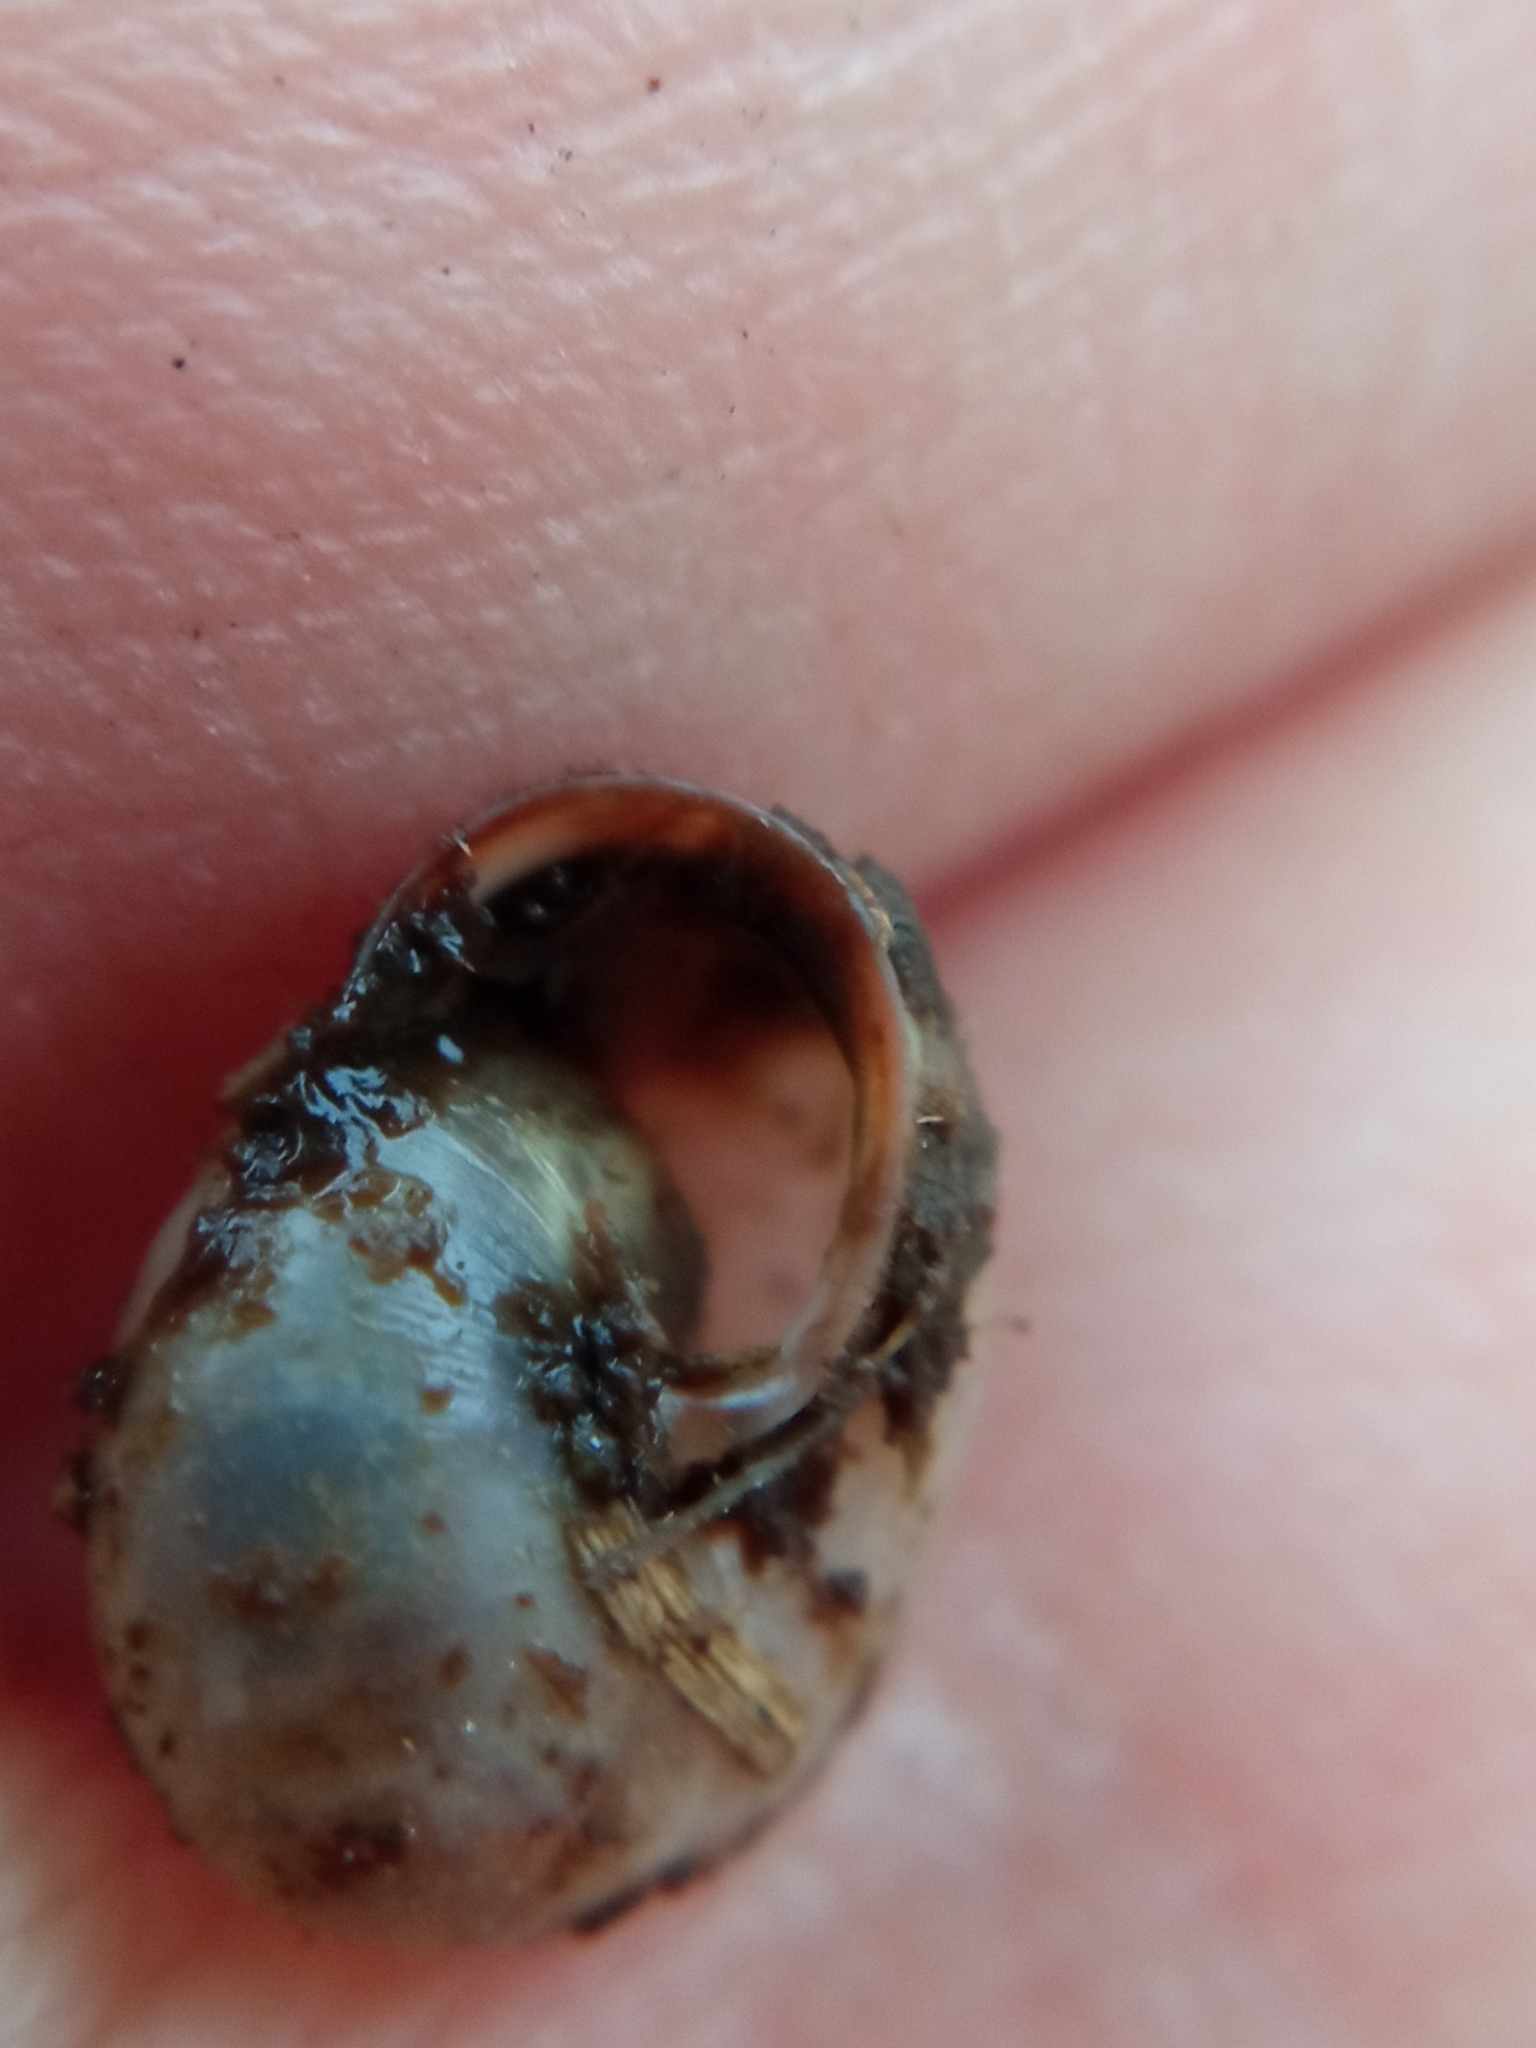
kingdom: Animalia
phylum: Mollusca
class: Gastropoda
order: Stylommatophora
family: Hygromiidae
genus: Monacha
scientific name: Monacha cartusiana
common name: Carthusian snail
